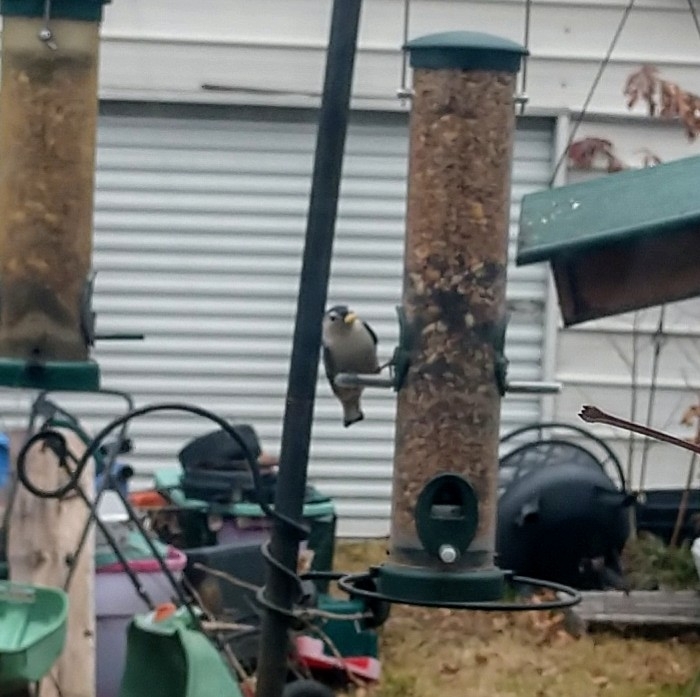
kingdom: Animalia
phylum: Chordata
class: Aves
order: Passeriformes
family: Sittidae
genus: Sitta
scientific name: Sitta carolinensis
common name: White-breasted nuthatch
